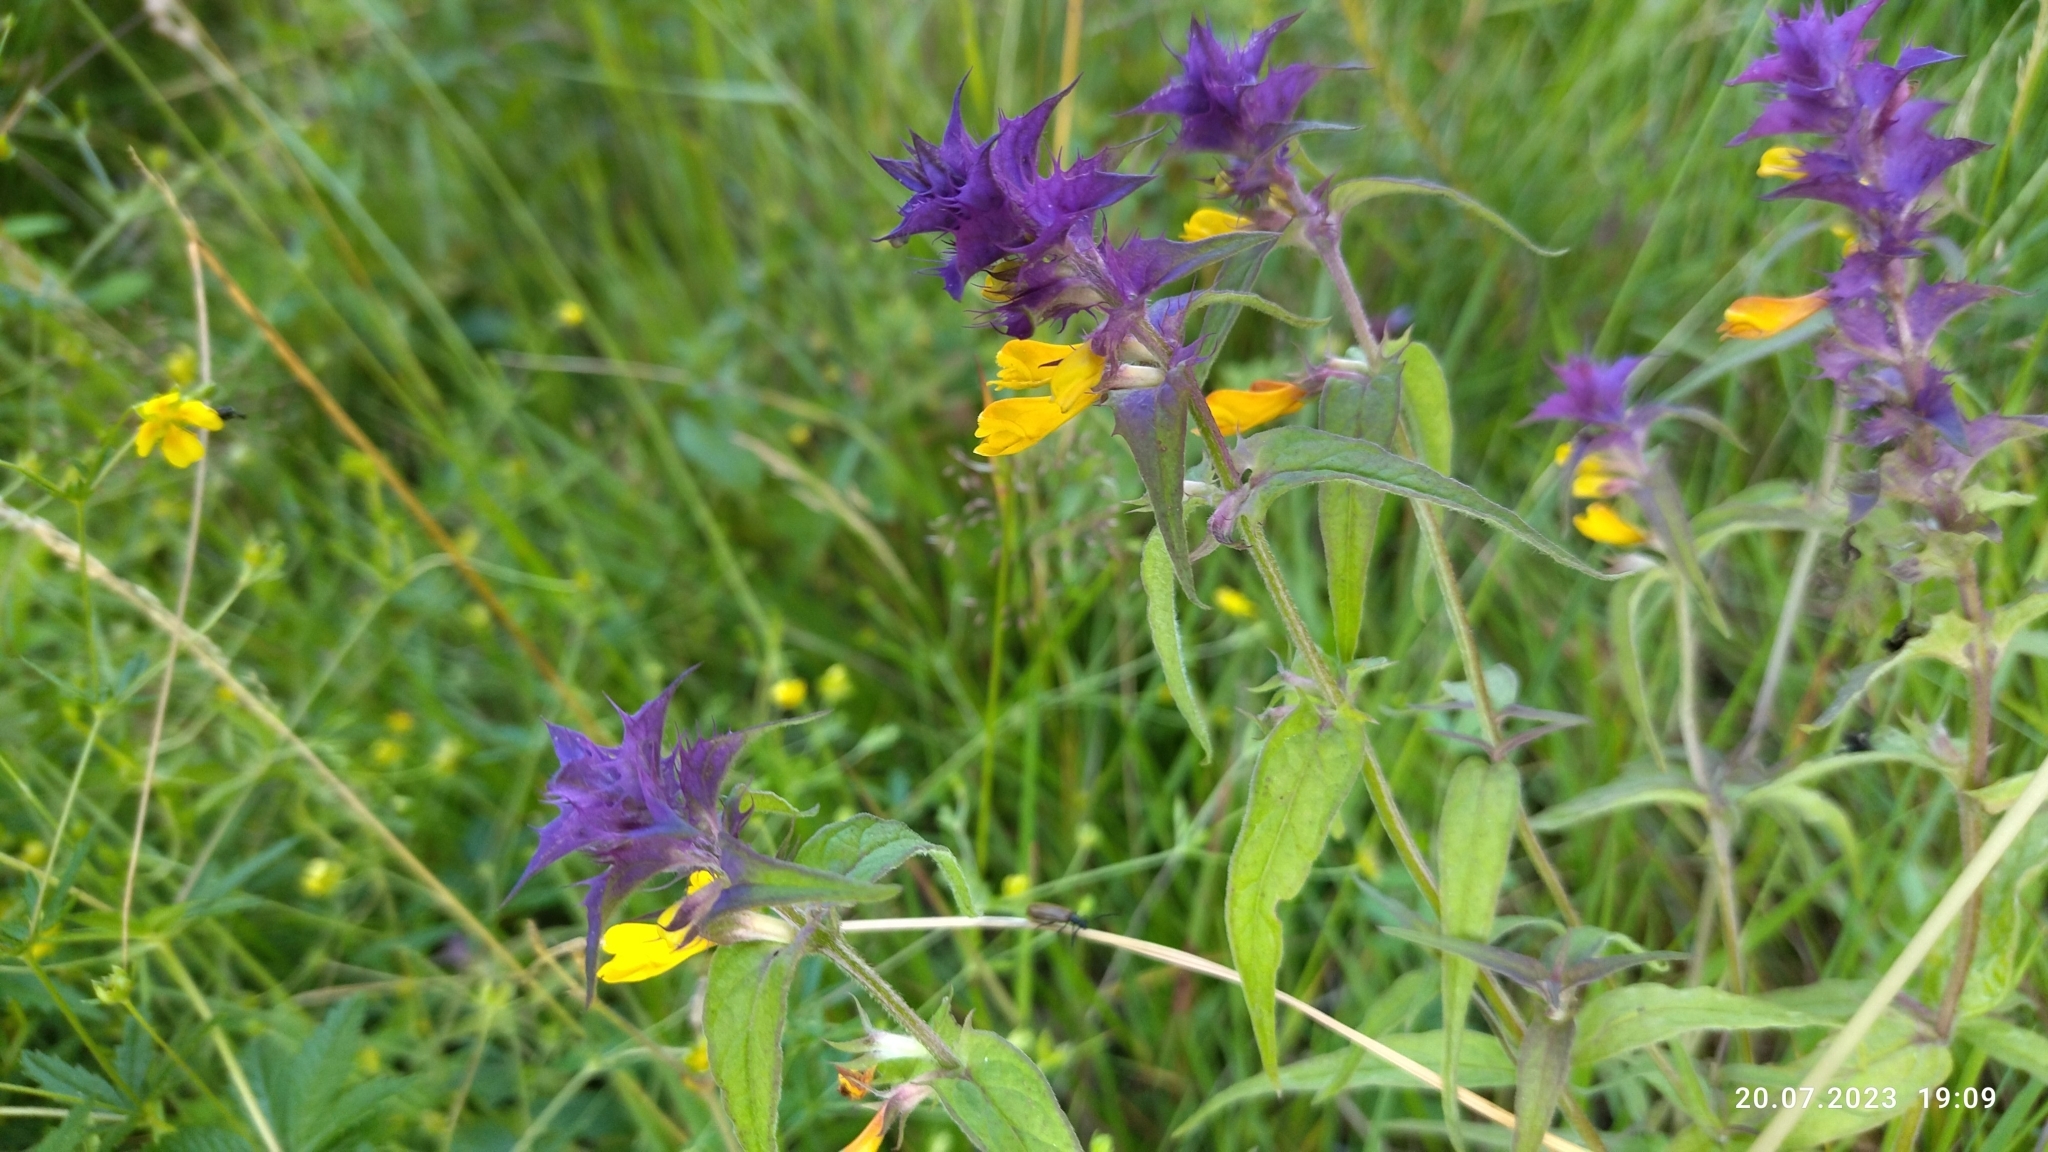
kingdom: Plantae
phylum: Tracheophyta
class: Magnoliopsida
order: Lamiales
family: Orobanchaceae
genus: Melampyrum
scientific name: Melampyrum nemorosum
